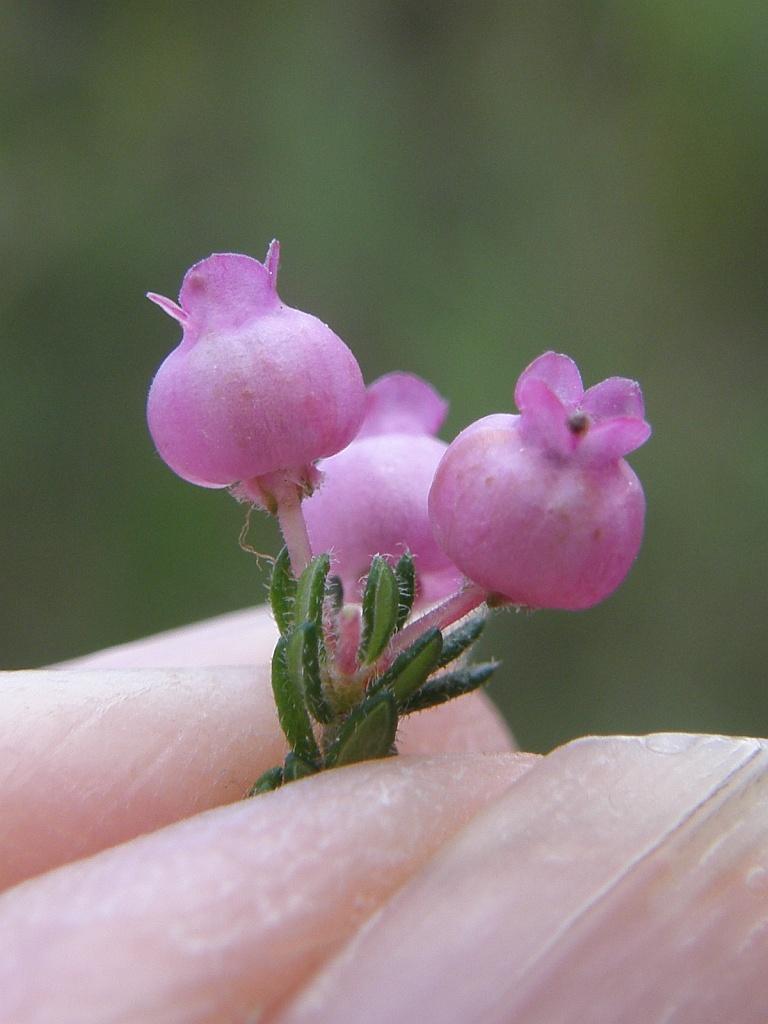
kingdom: Plantae
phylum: Tracheophyta
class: Magnoliopsida
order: Ericales
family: Ericaceae
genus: Erica
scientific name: Erica bergiana
